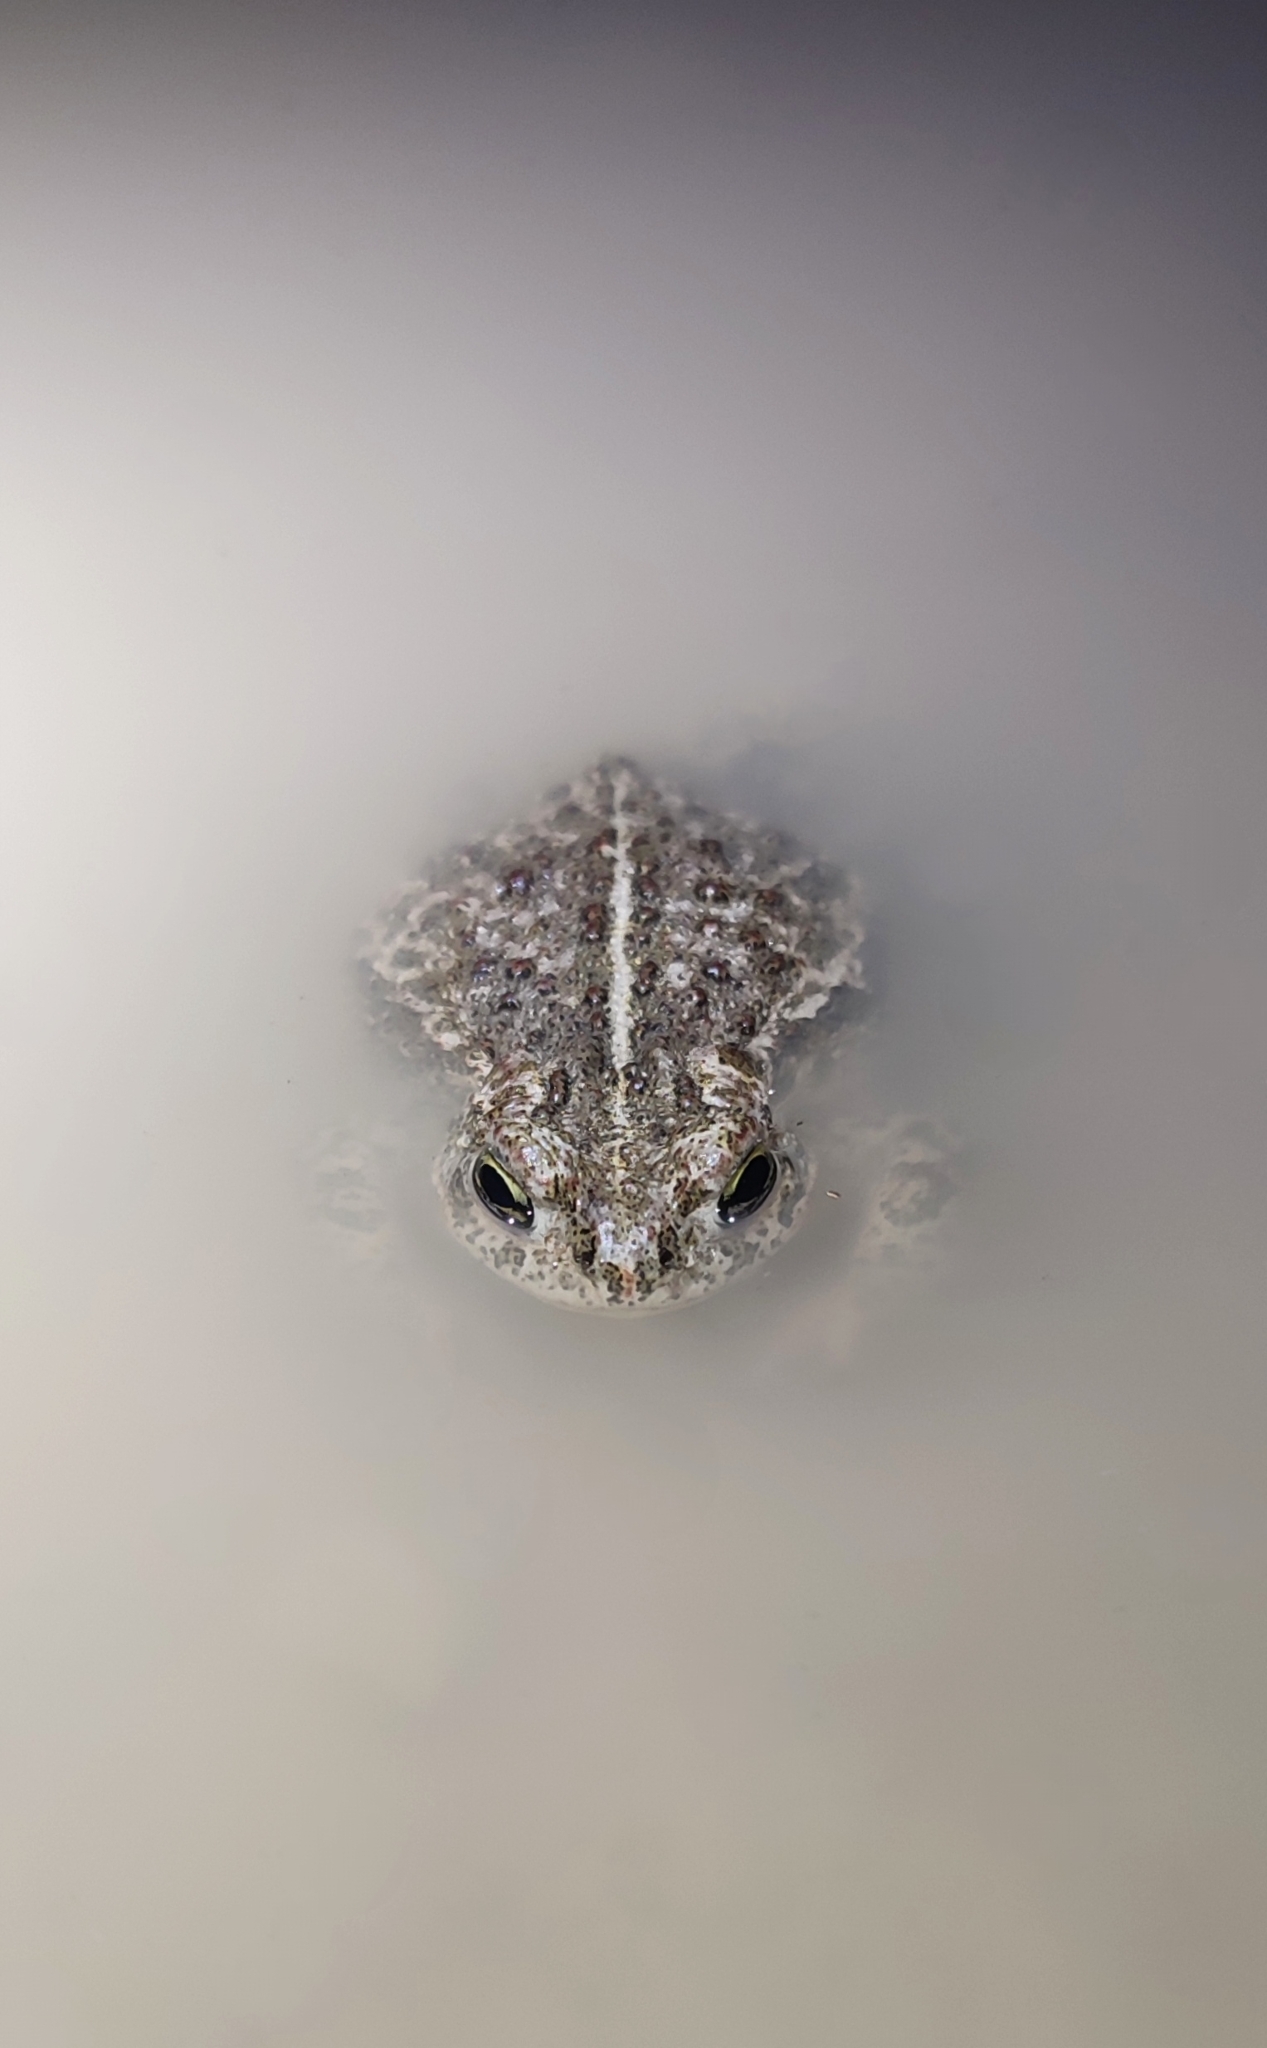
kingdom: Animalia
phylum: Chordata
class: Amphibia
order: Anura
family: Bufonidae
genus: Epidalea
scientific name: Epidalea calamita
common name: Natterjack toad
